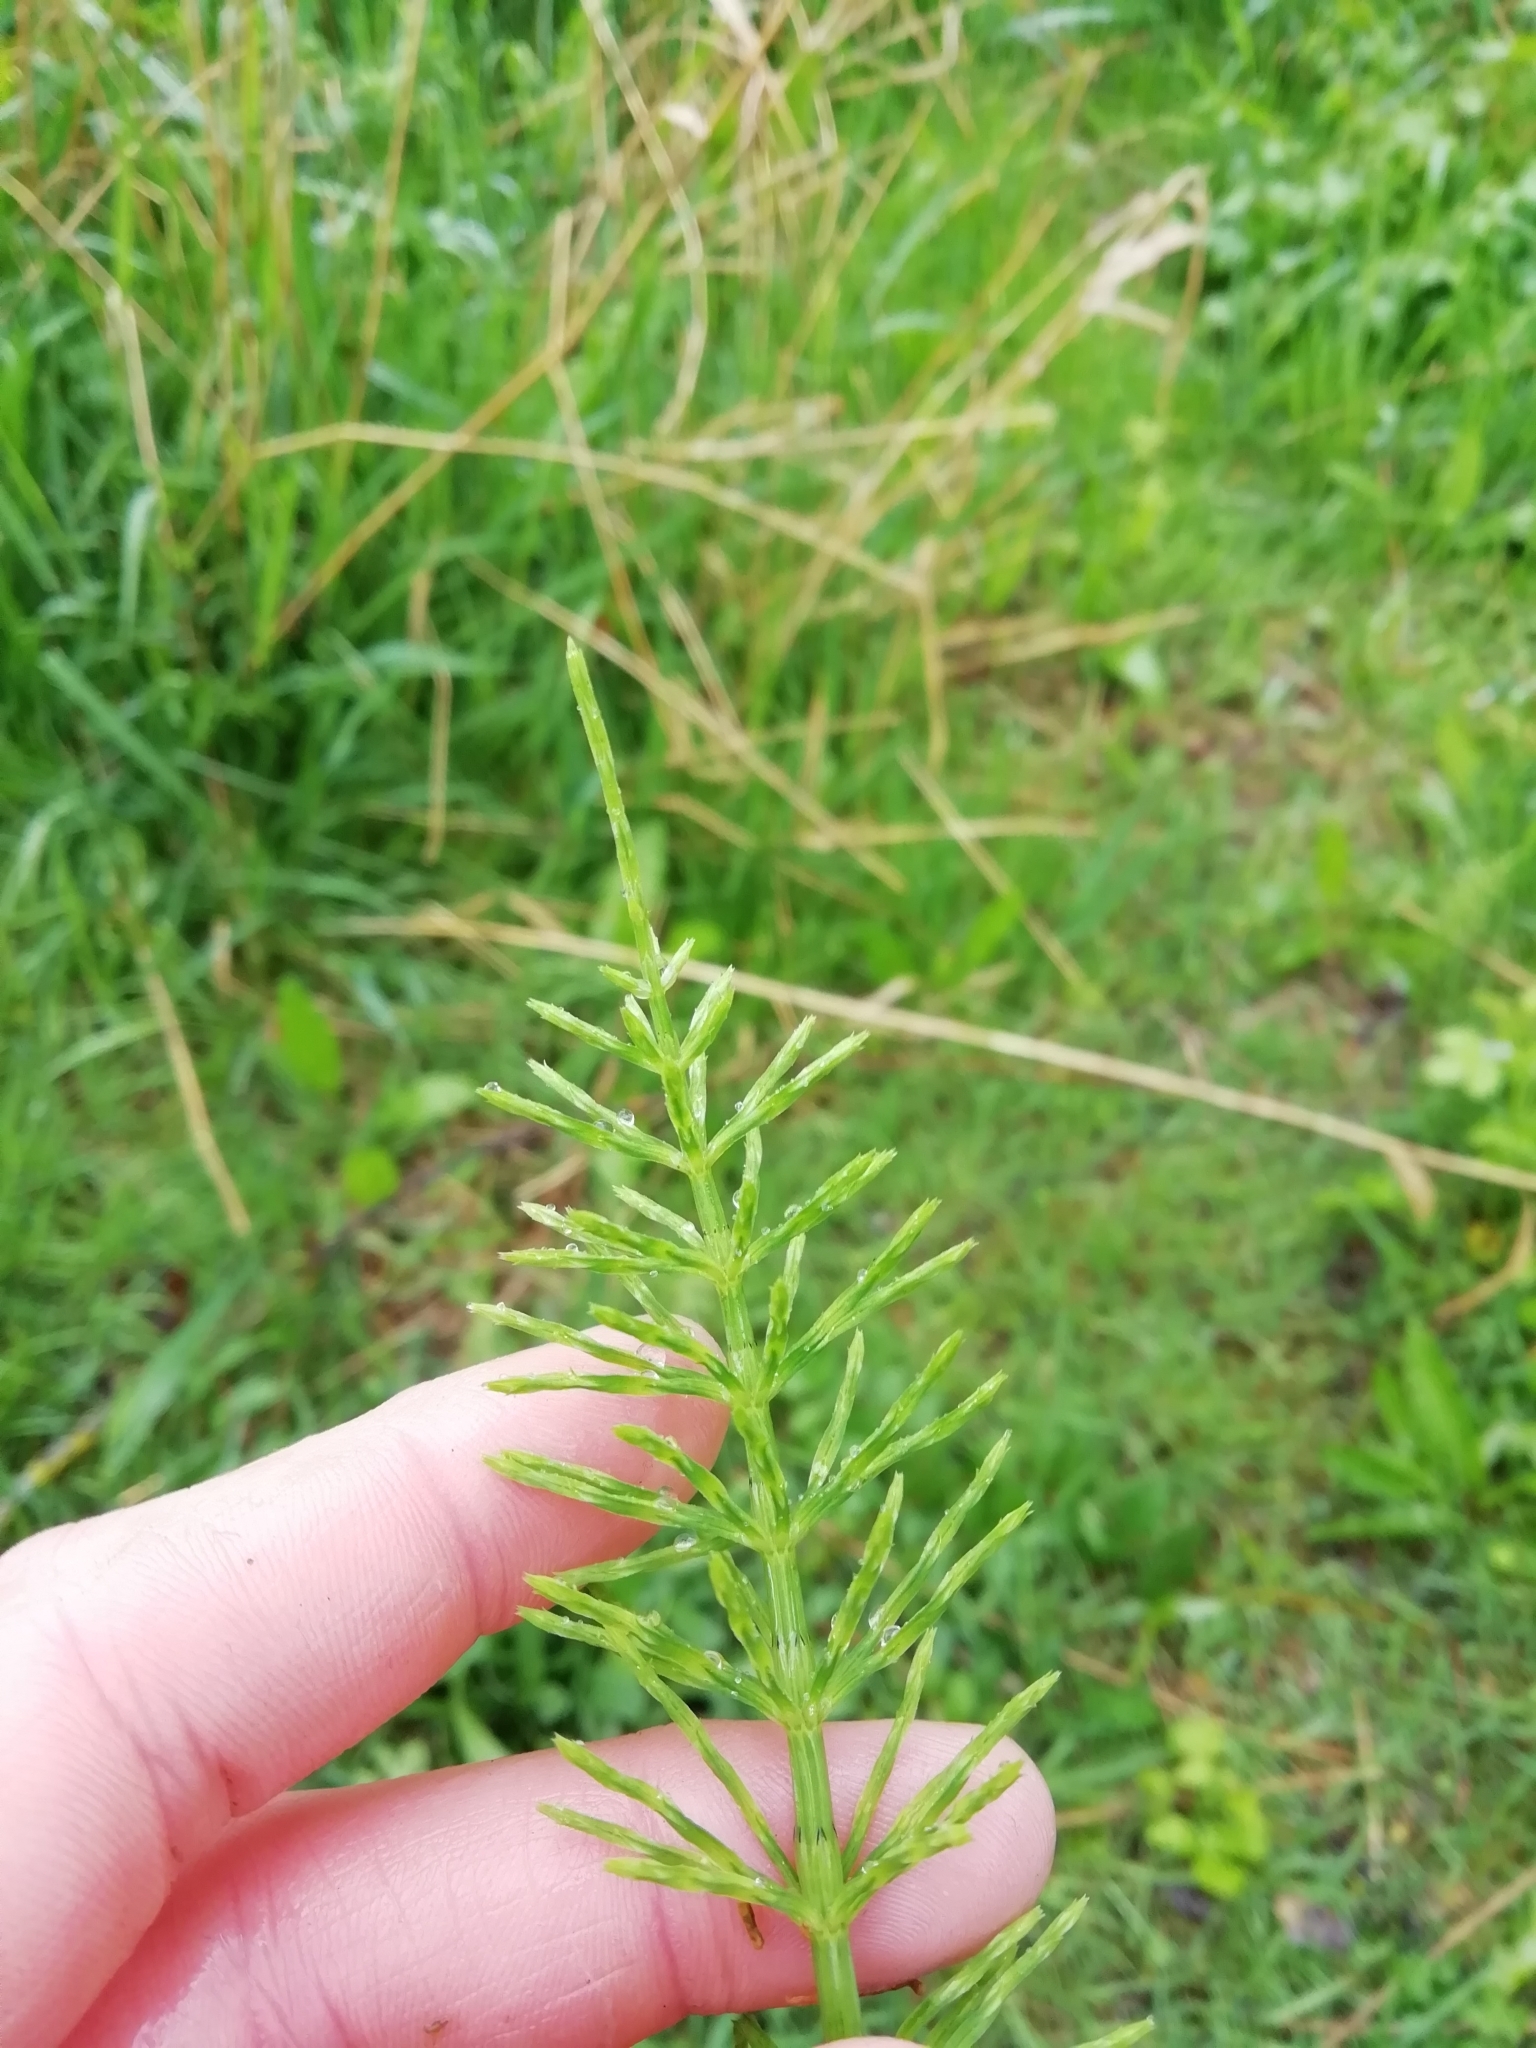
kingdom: Plantae
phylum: Tracheophyta
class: Polypodiopsida
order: Equisetales
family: Equisetaceae
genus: Equisetum
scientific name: Equisetum arvense
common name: Field horsetail
